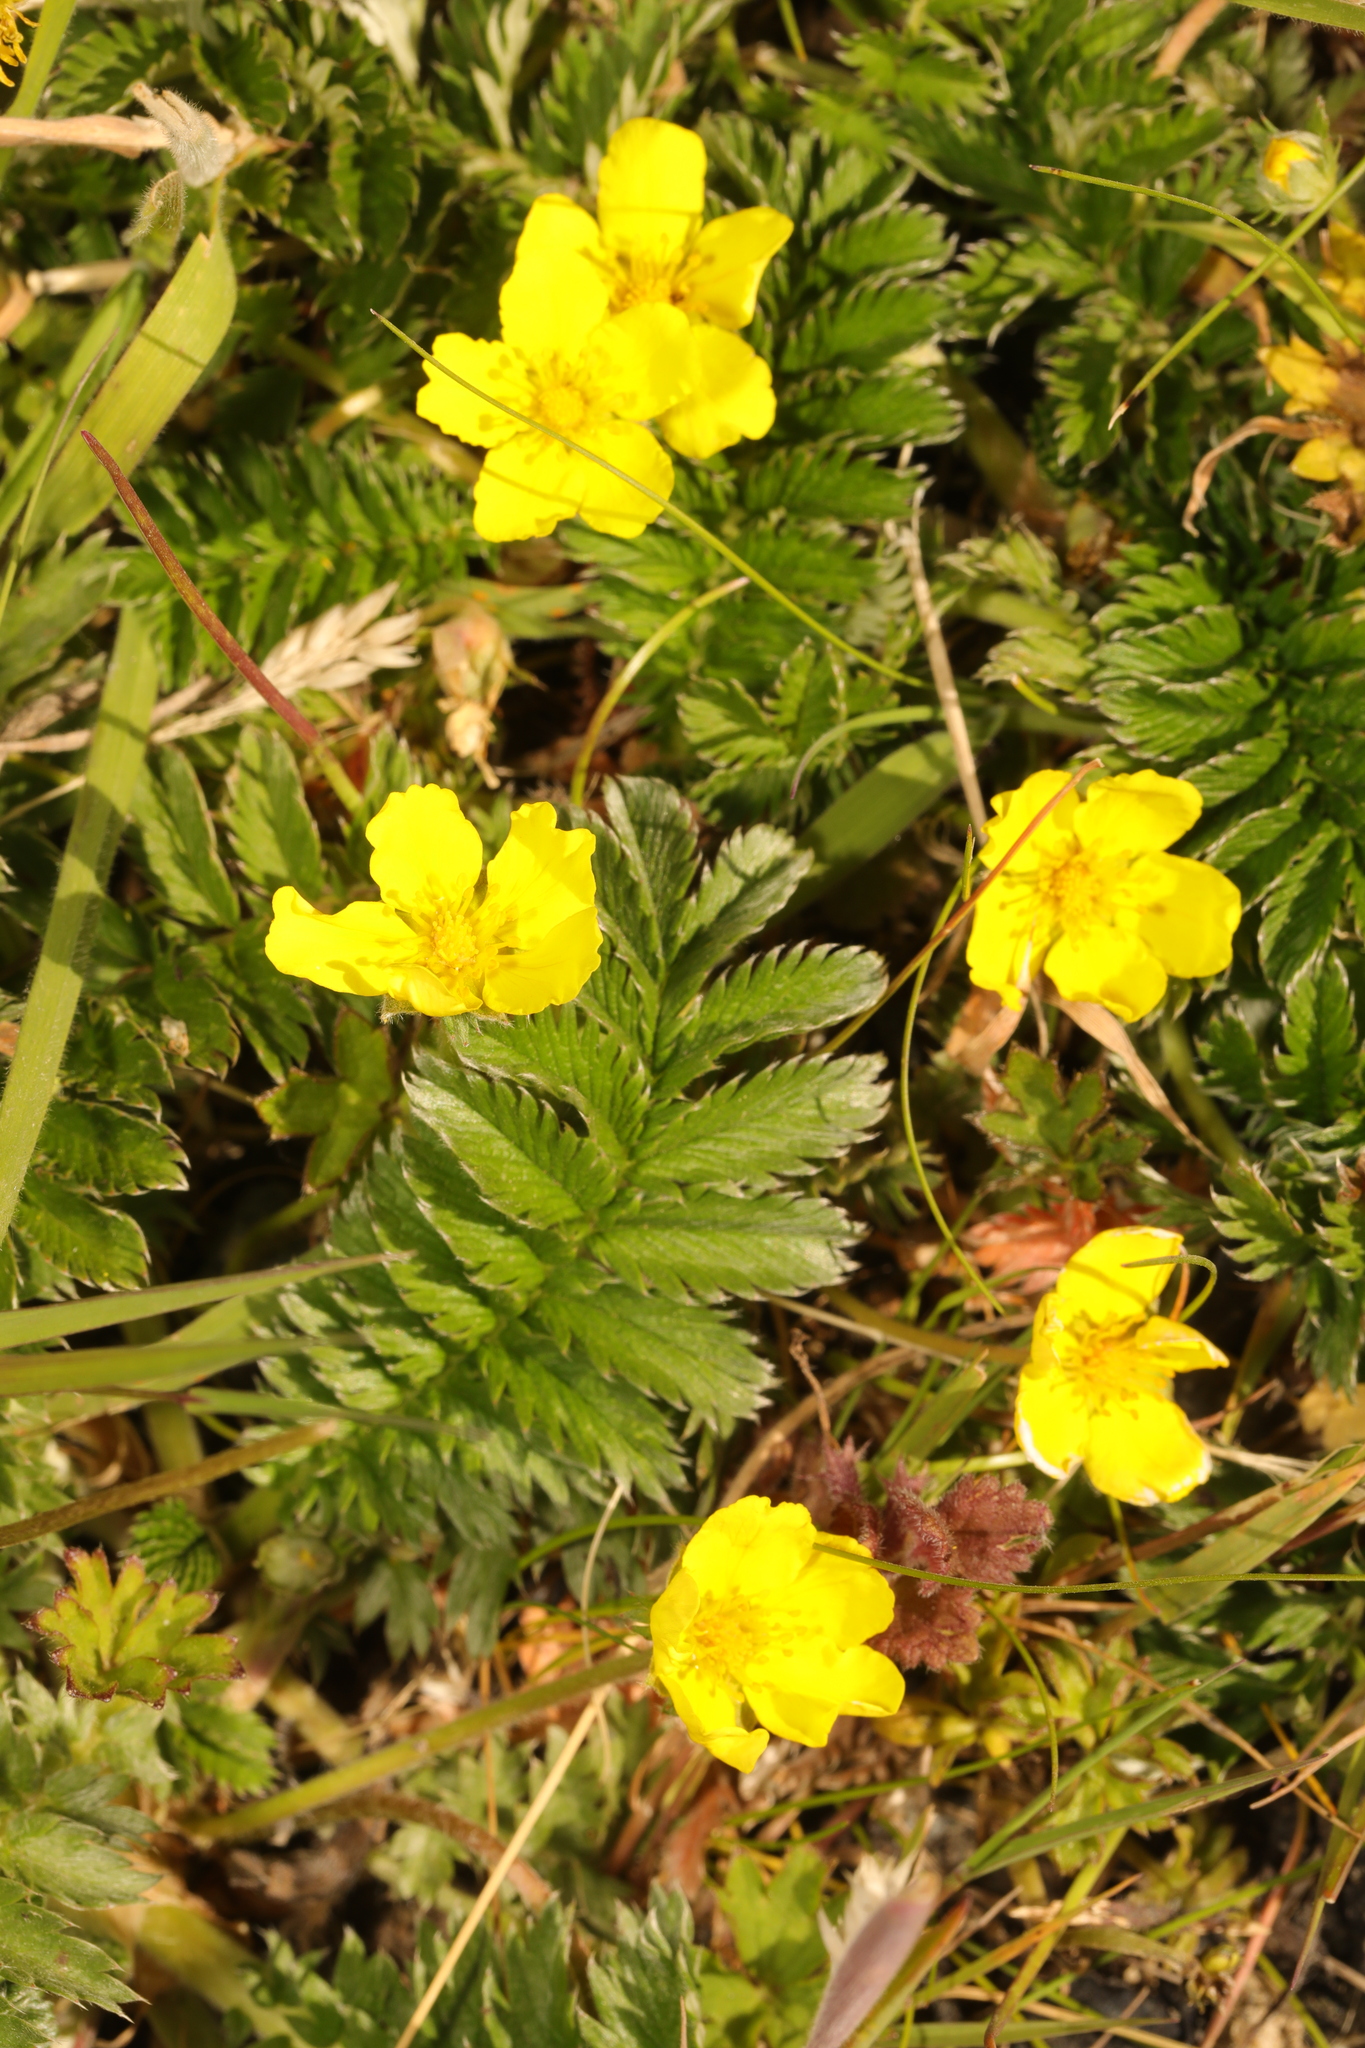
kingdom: Plantae
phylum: Tracheophyta
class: Magnoliopsida
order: Rosales
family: Rosaceae
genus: Argentina
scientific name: Argentina anserina
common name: Common silverweed
